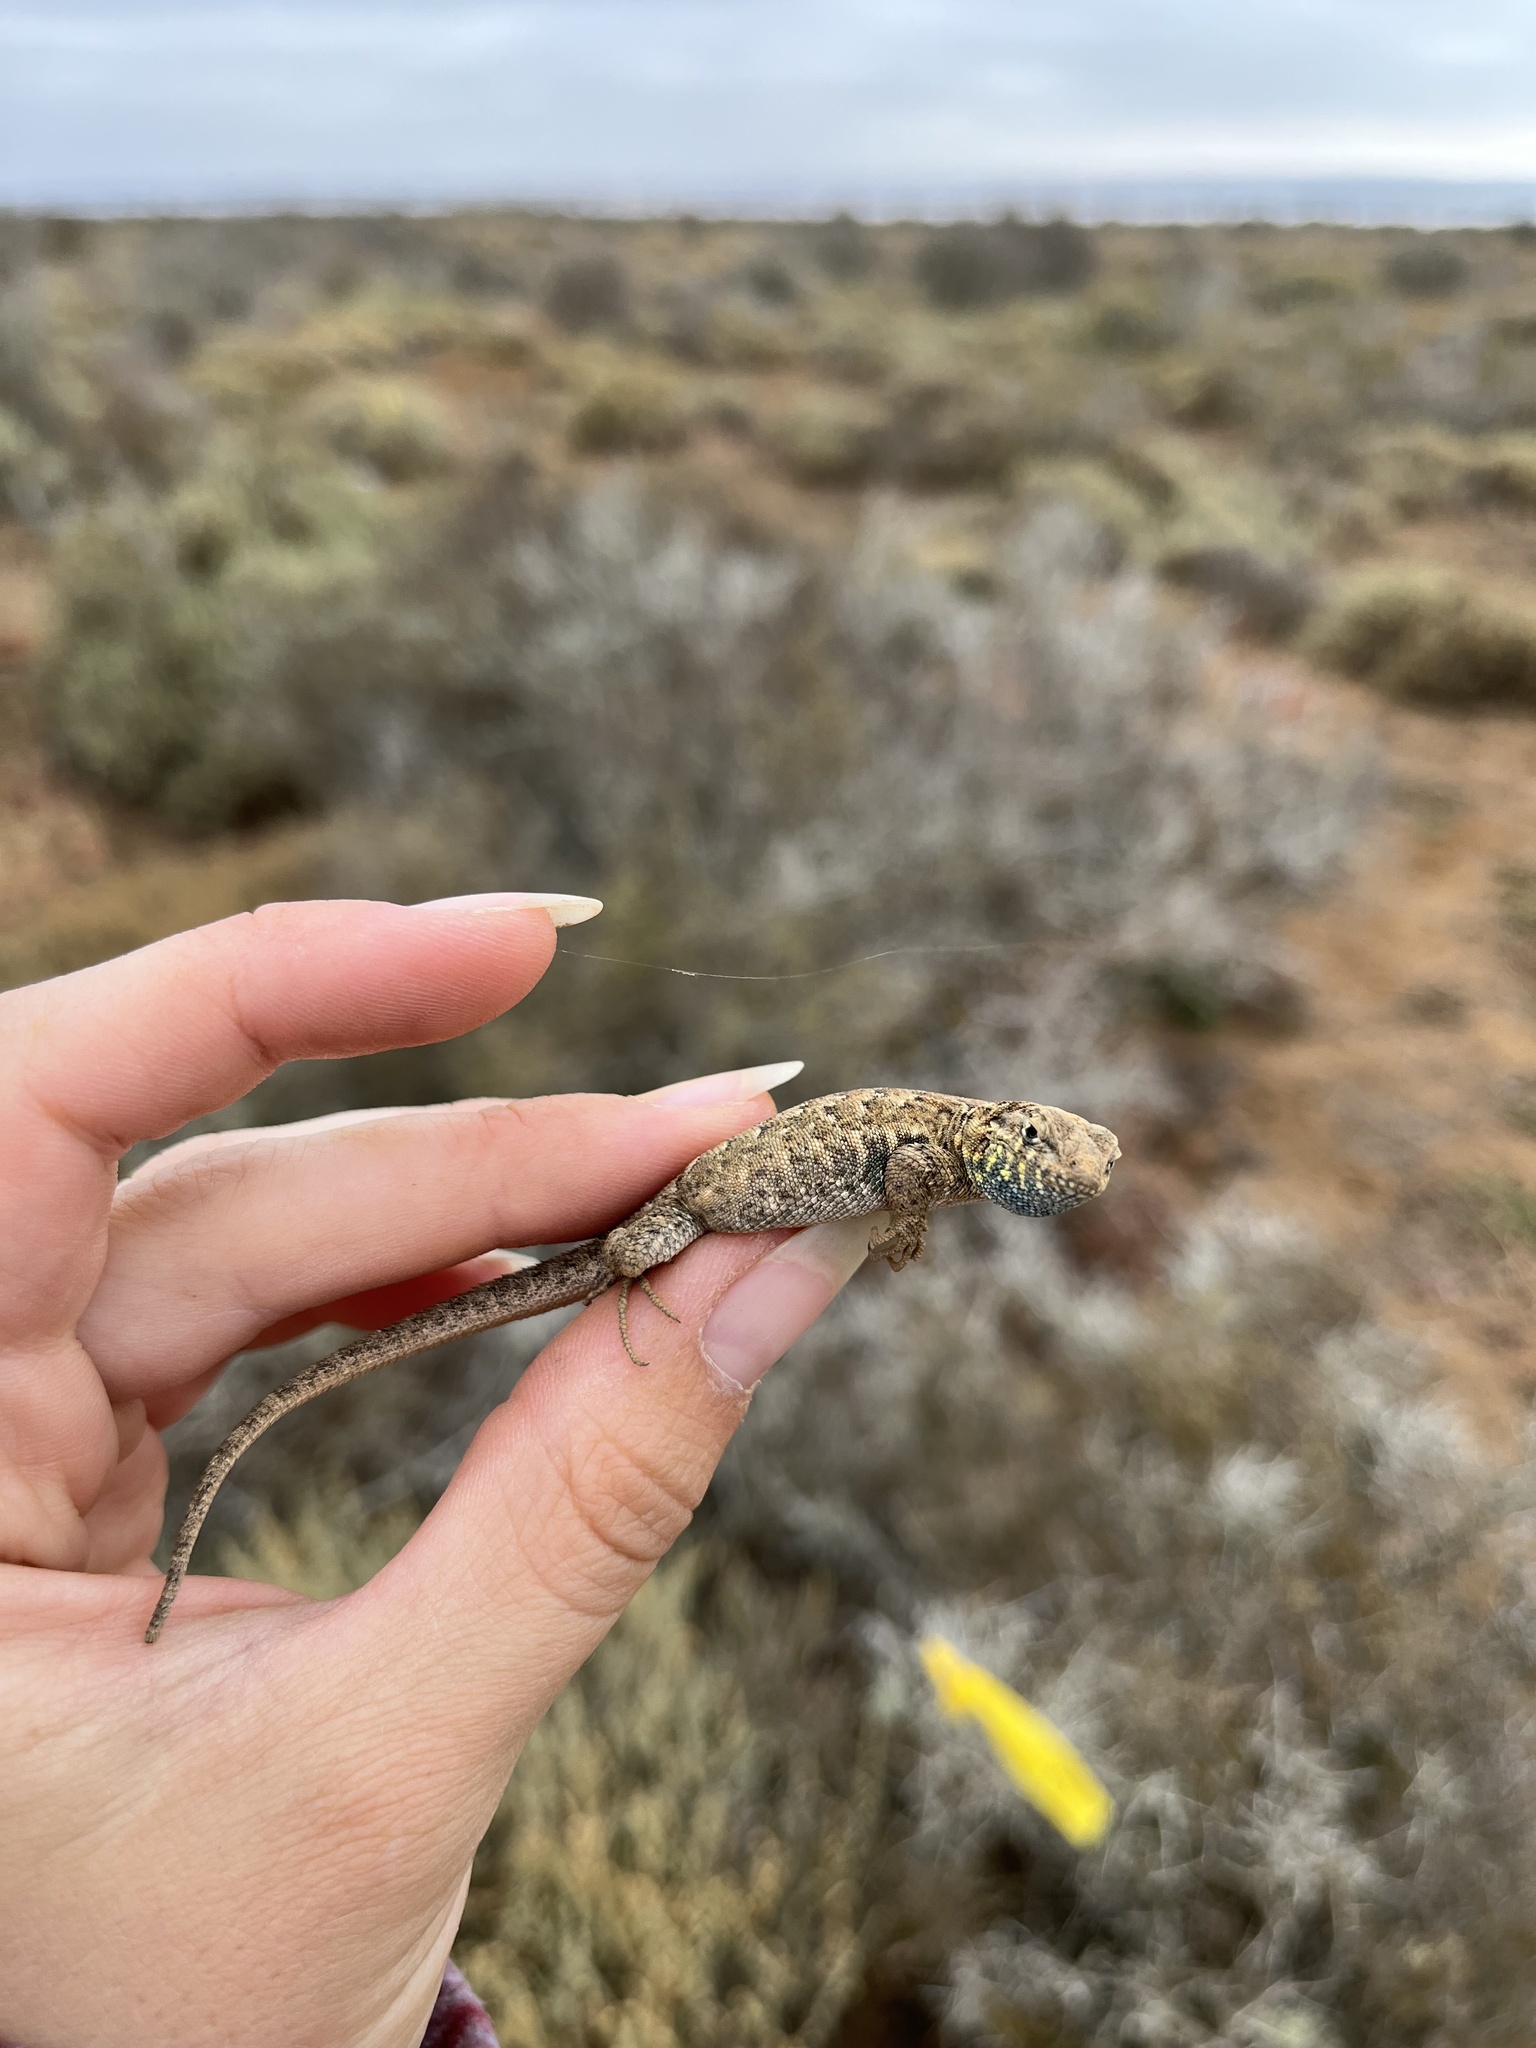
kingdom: Animalia
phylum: Chordata
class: Squamata
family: Phrynosomatidae
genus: Uta
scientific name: Uta stansburiana
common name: Side-blotched lizard
